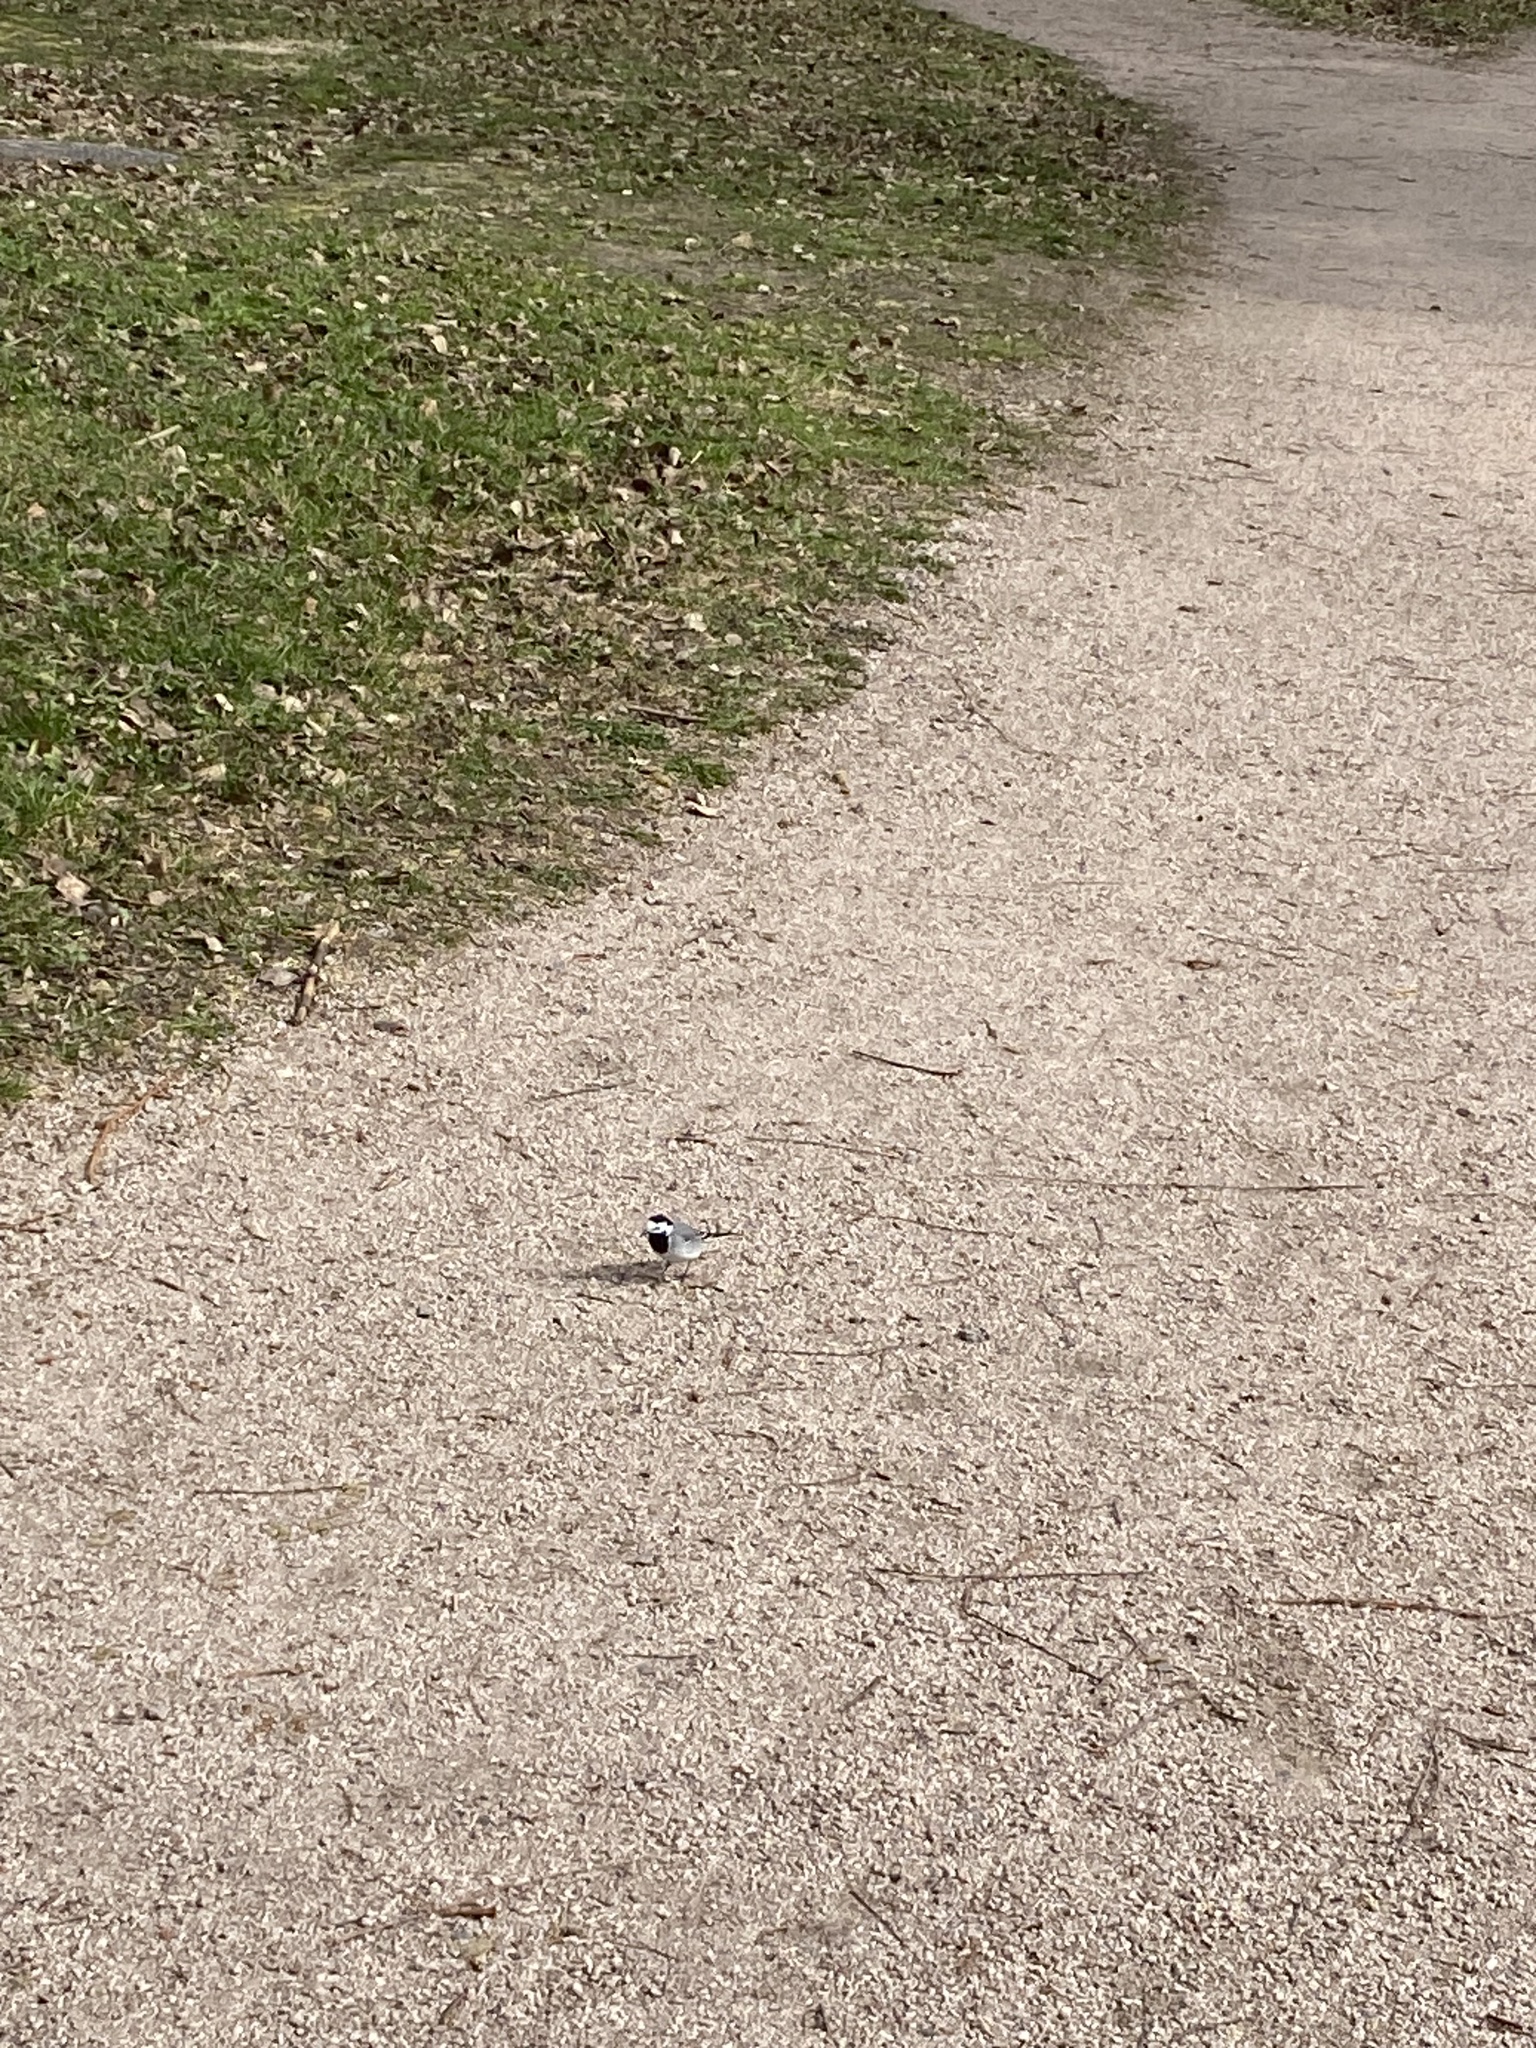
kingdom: Animalia
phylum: Chordata
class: Aves
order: Passeriformes
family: Motacillidae
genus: Motacilla
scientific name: Motacilla alba
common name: White wagtail
